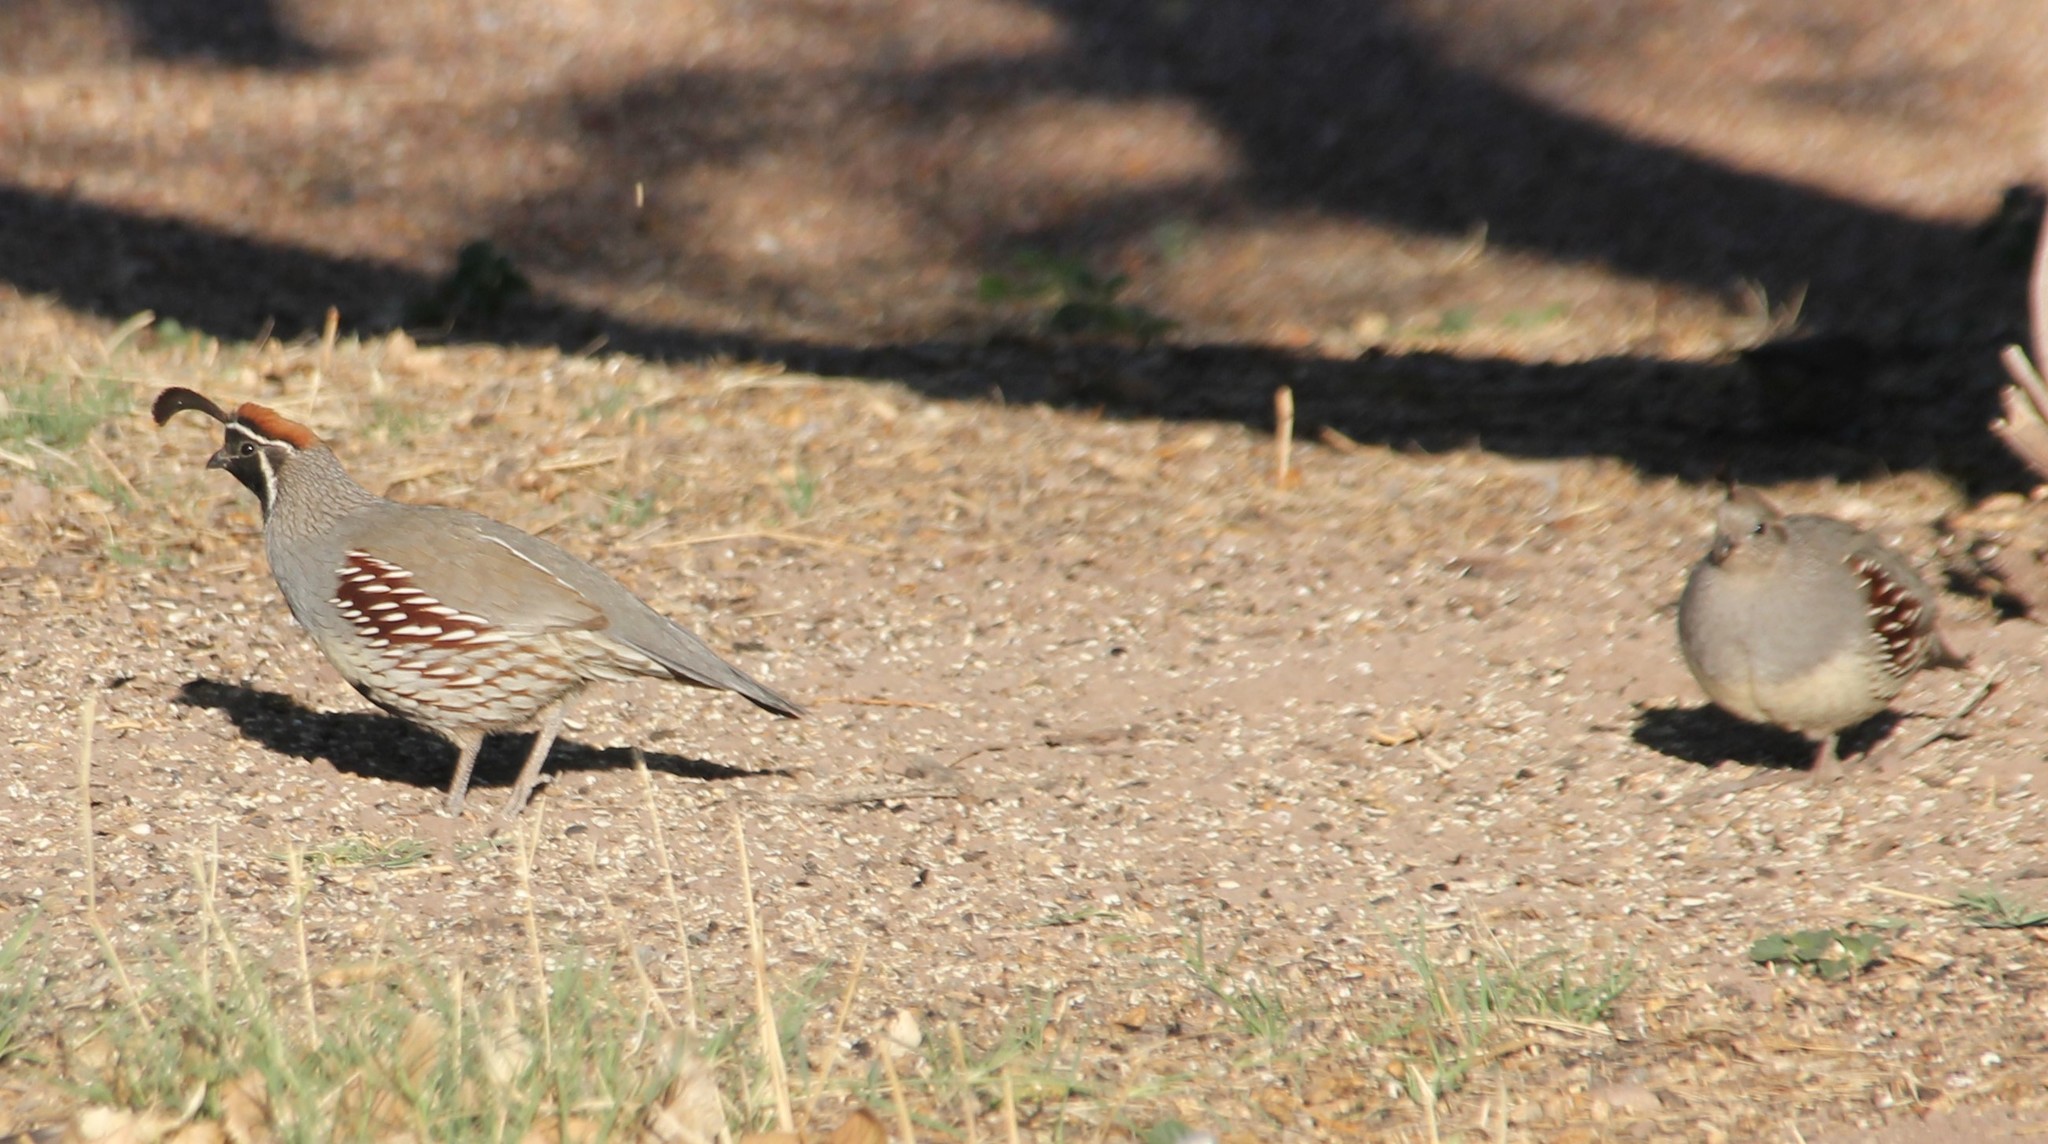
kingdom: Animalia
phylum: Chordata
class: Aves
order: Galliformes
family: Odontophoridae
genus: Callipepla
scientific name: Callipepla gambelii
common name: Gambel's quail
